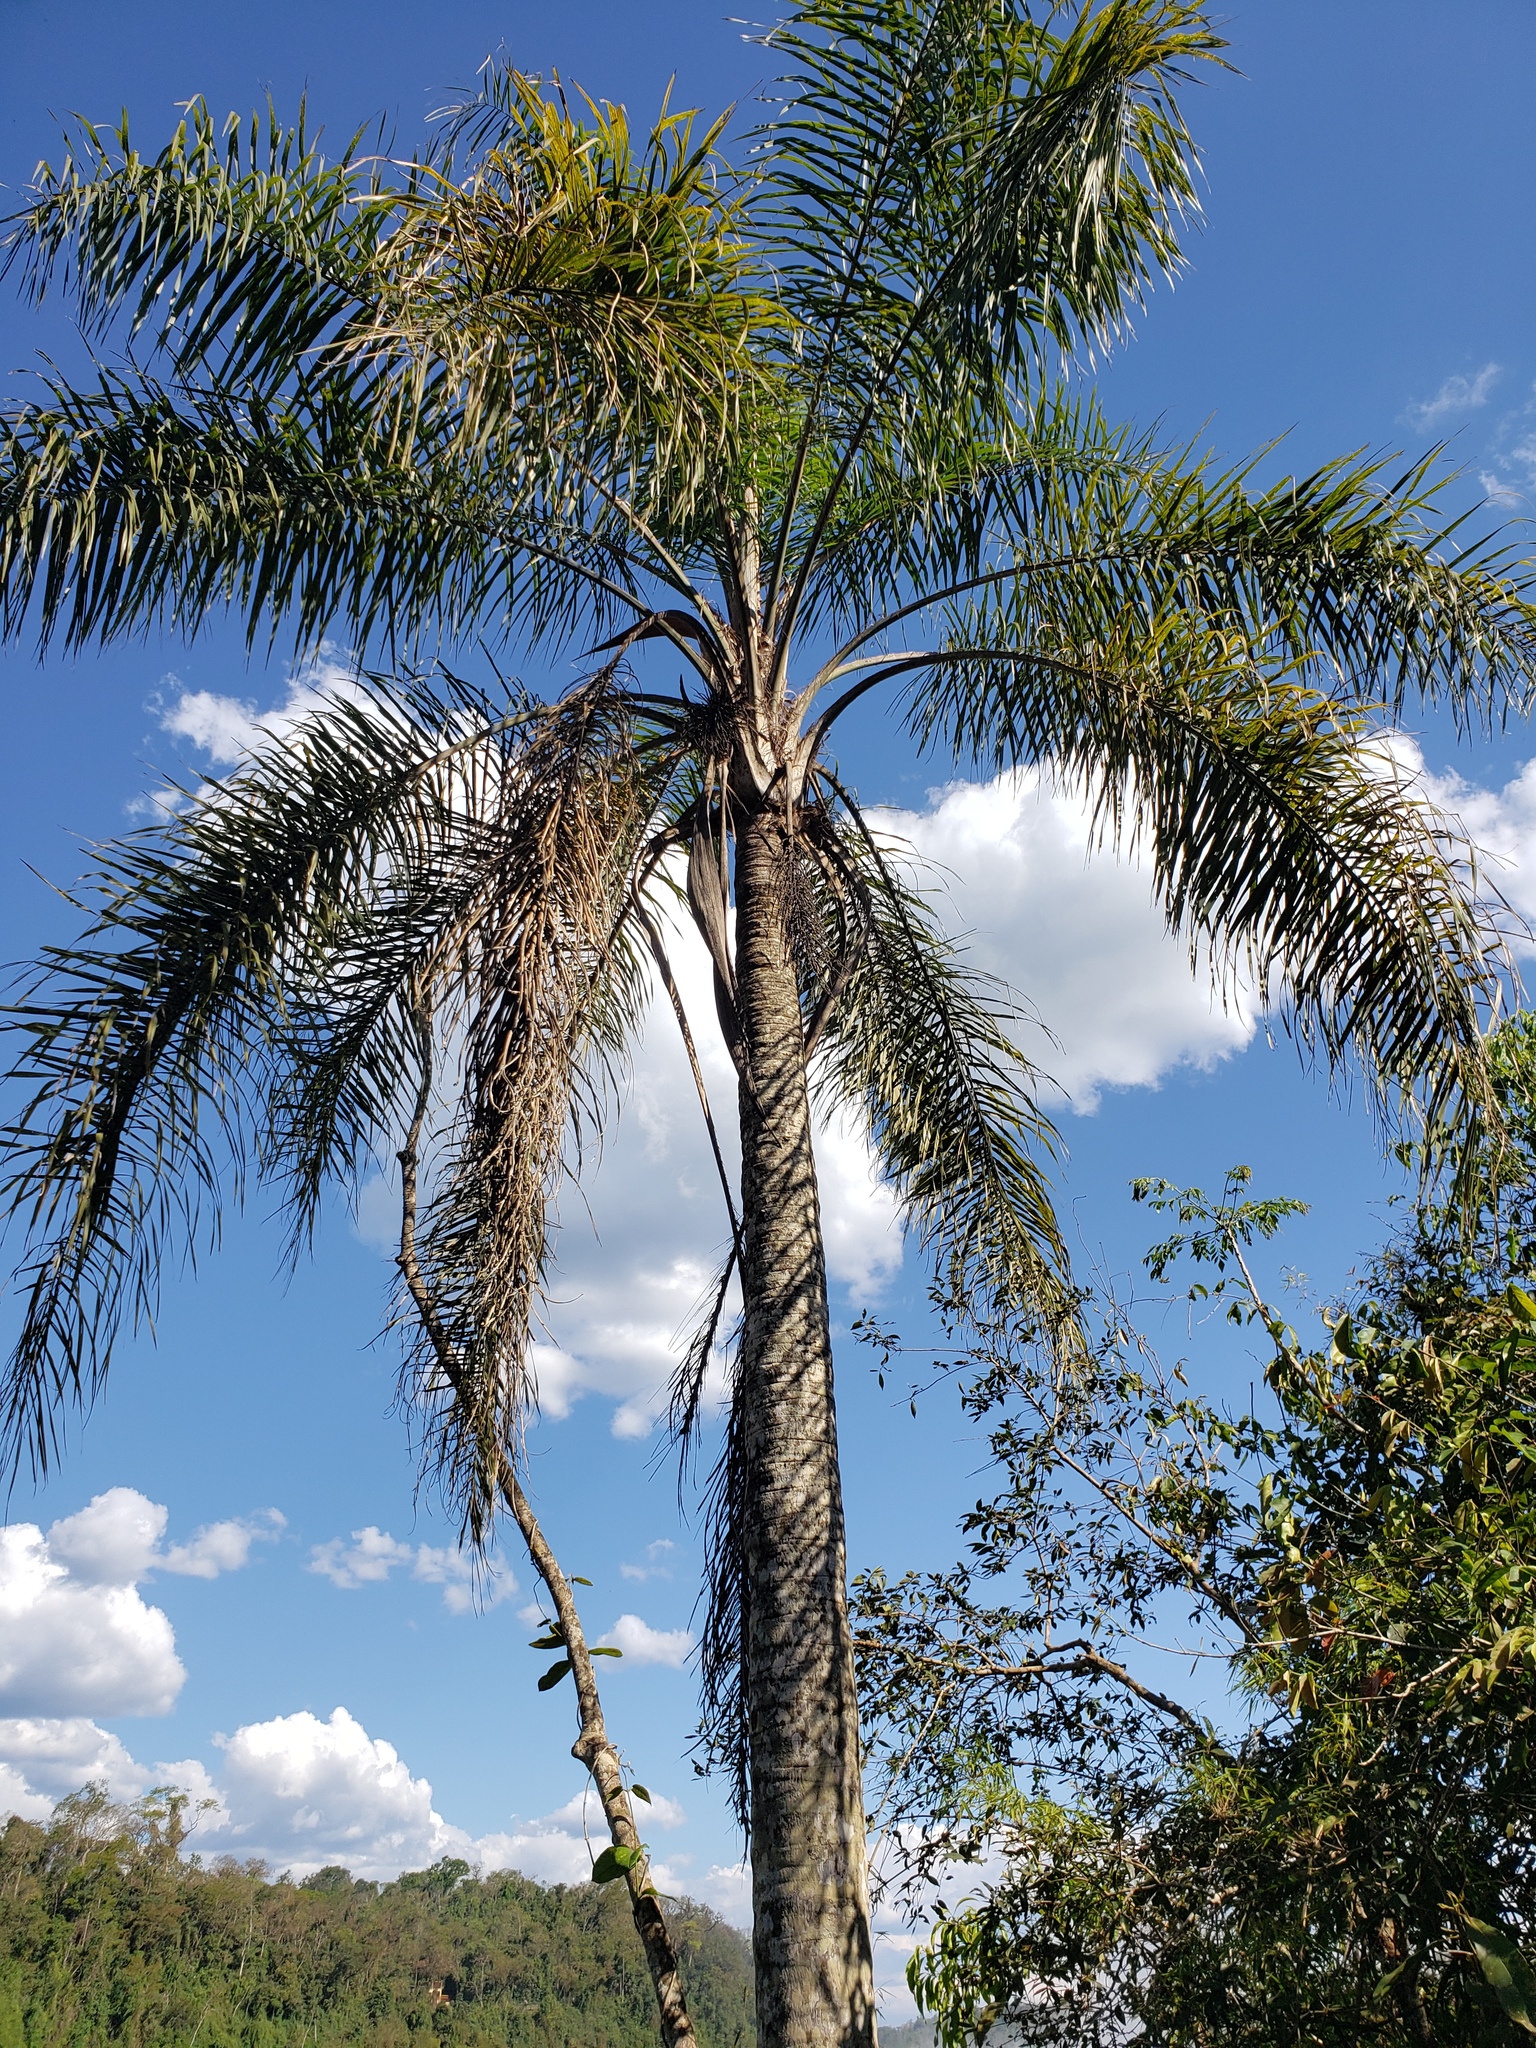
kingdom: Plantae
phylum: Tracheophyta
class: Liliopsida
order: Arecales
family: Arecaceae
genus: Syagrus
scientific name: Syagrus romanzoffiana
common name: Queen palm
